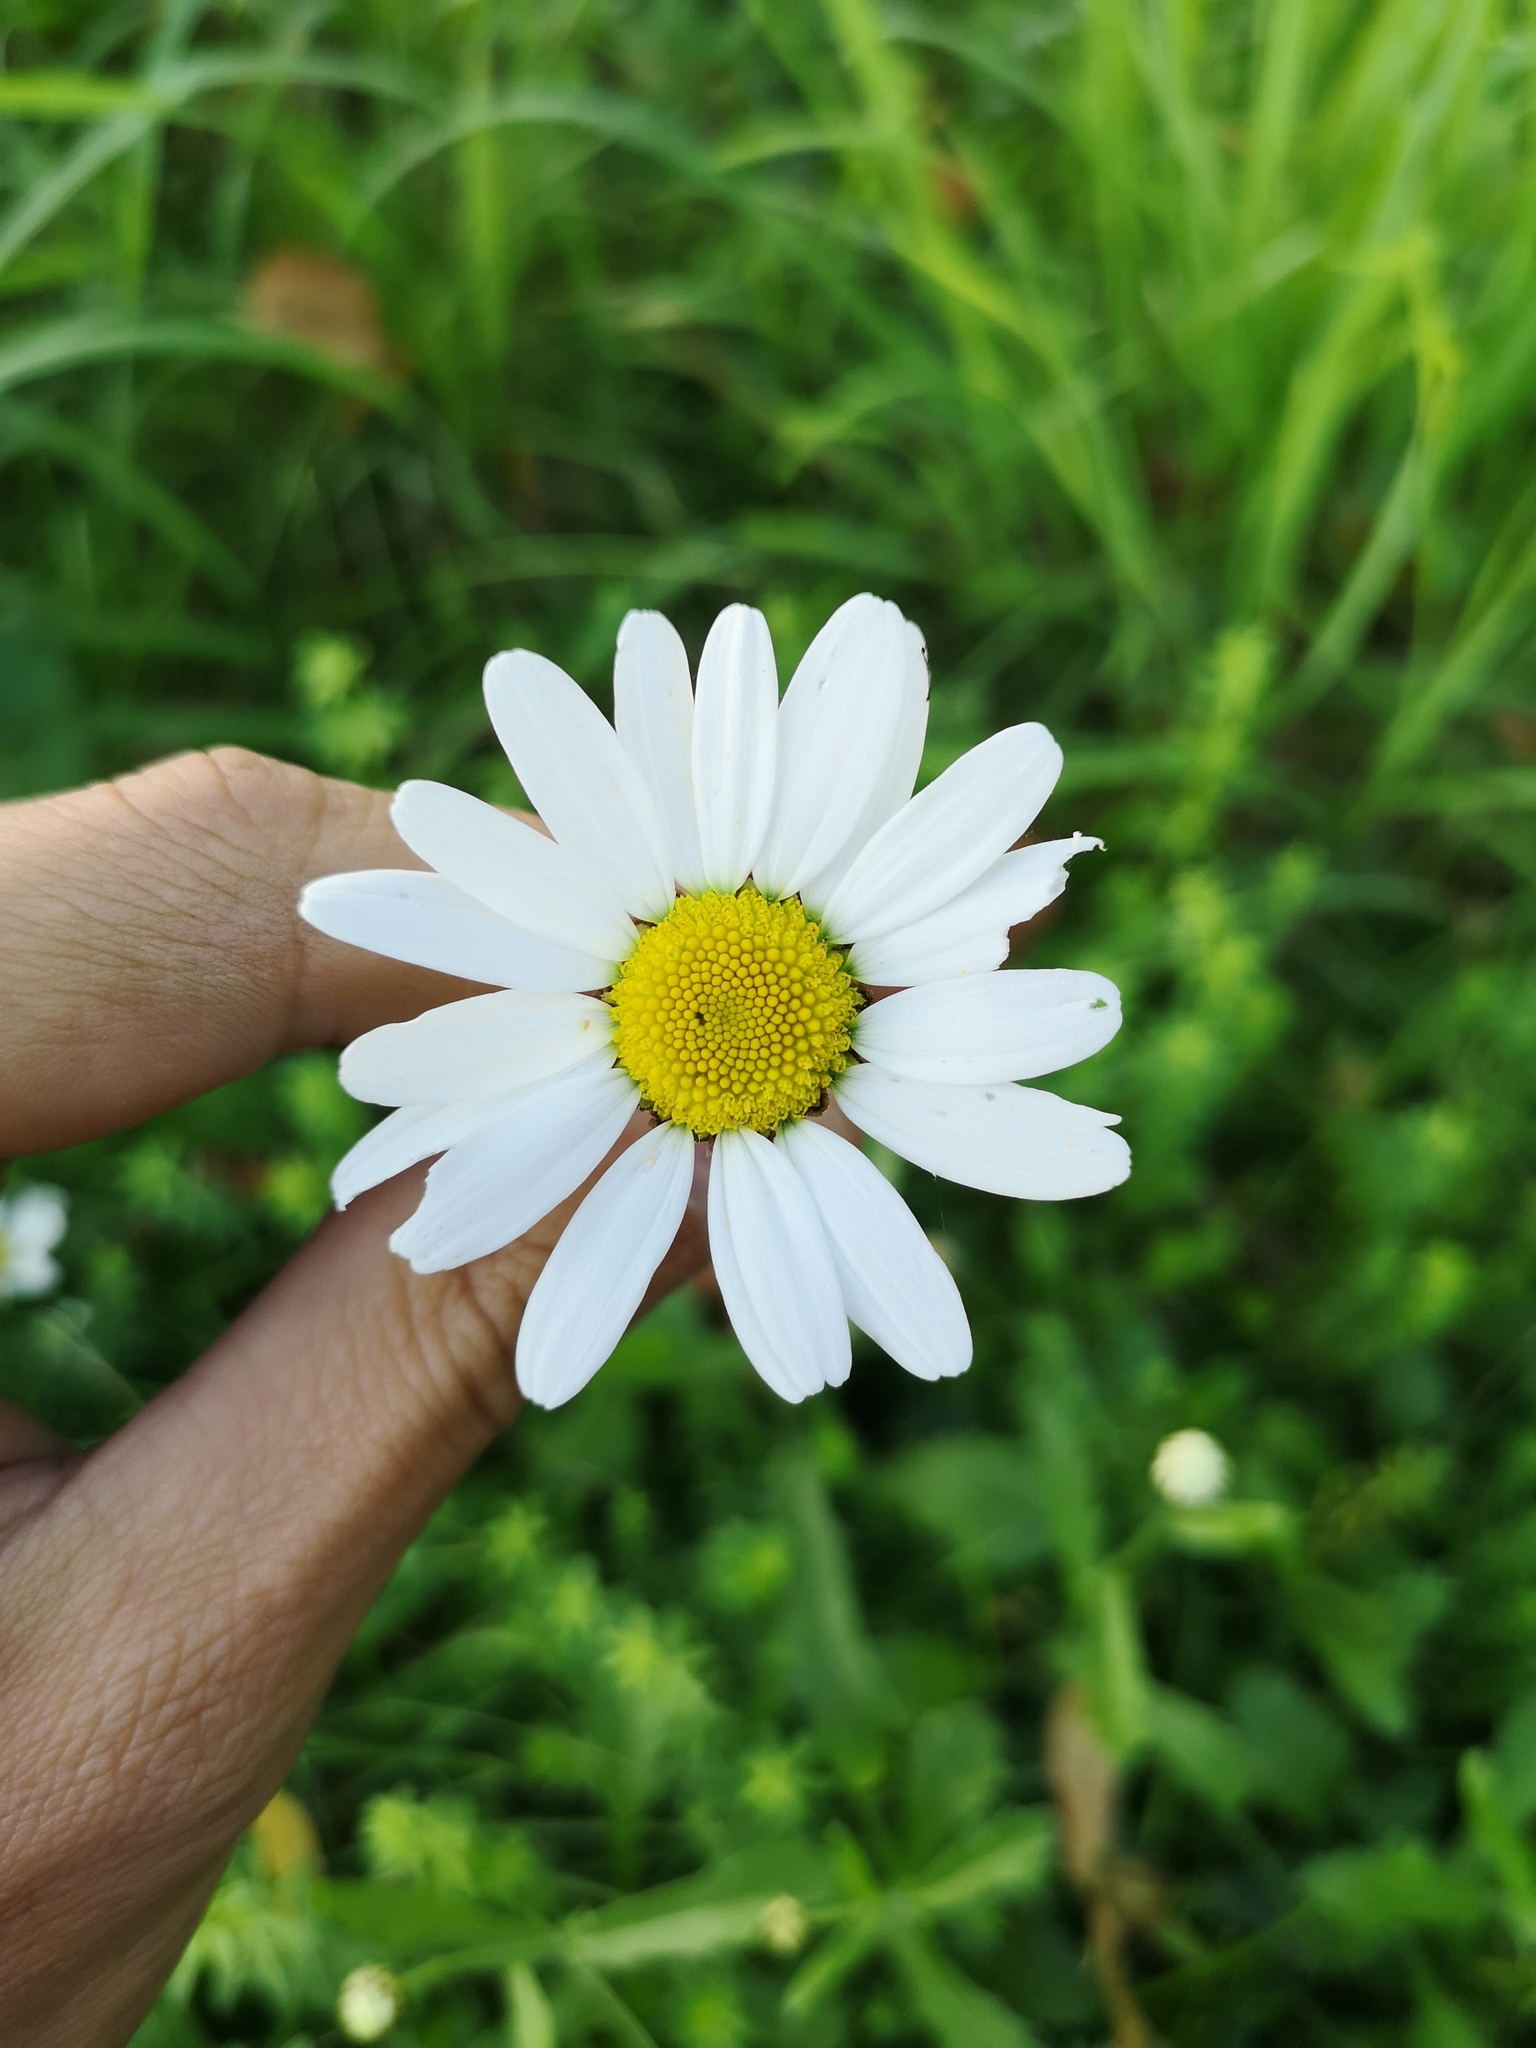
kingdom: Plantae
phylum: Tracheophyta
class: Magnoliopsida
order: Asterales
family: Asteraceae
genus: Leucanthemum
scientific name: Leucanthemum ircutianum
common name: Daisy
